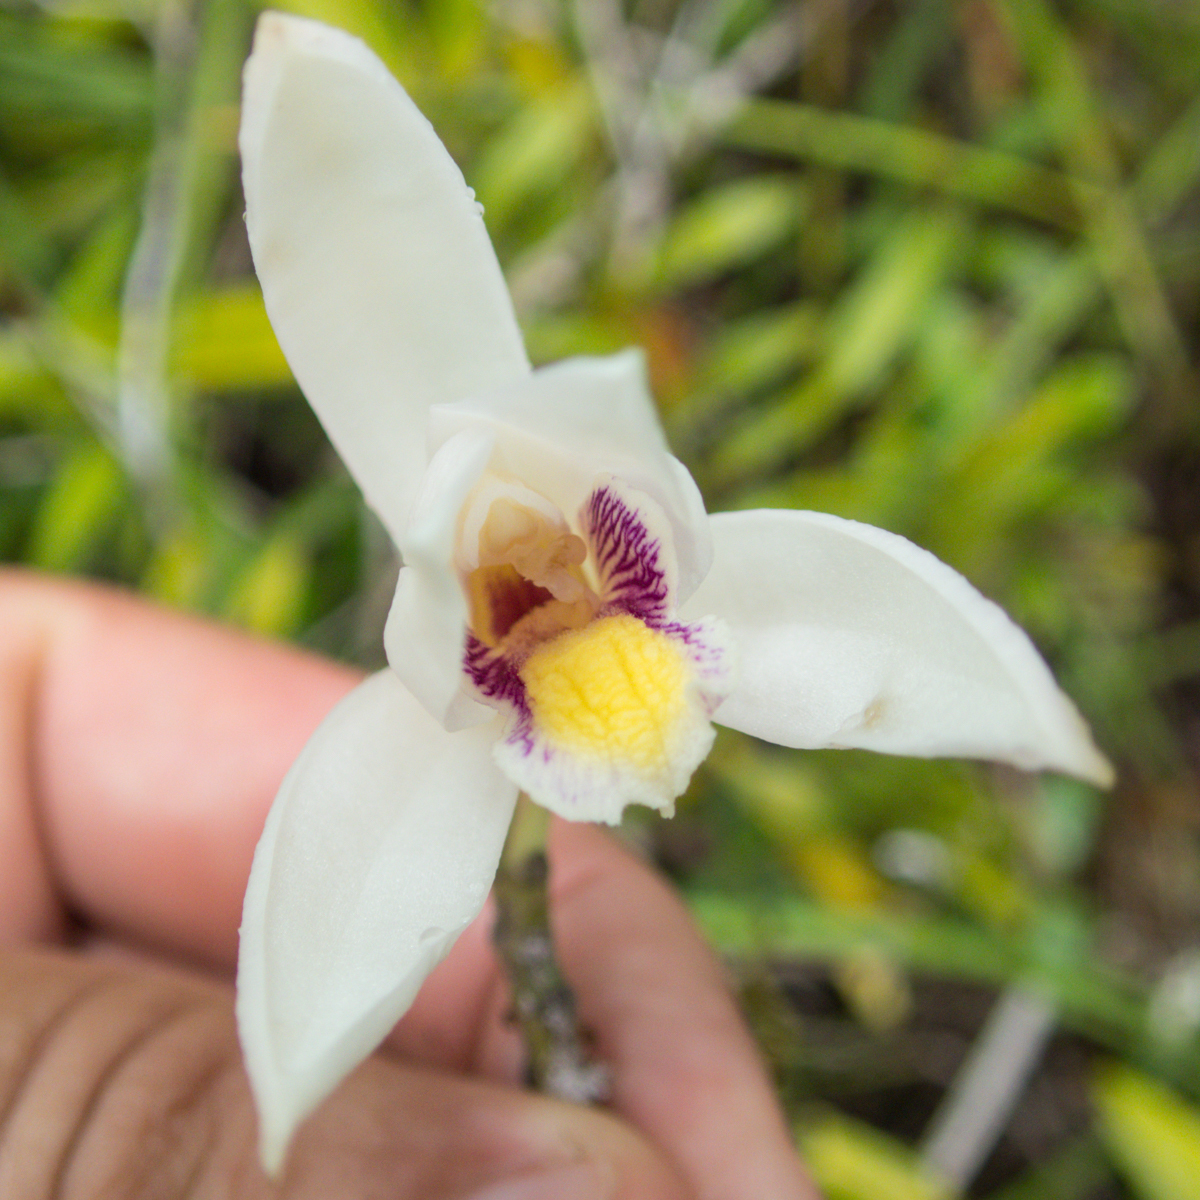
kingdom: Plantae
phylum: Tracheophyta
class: Liliopsida
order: Asparagales
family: Orchidaceae
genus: Bromheadia
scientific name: Bromheadia finlaysoniana
